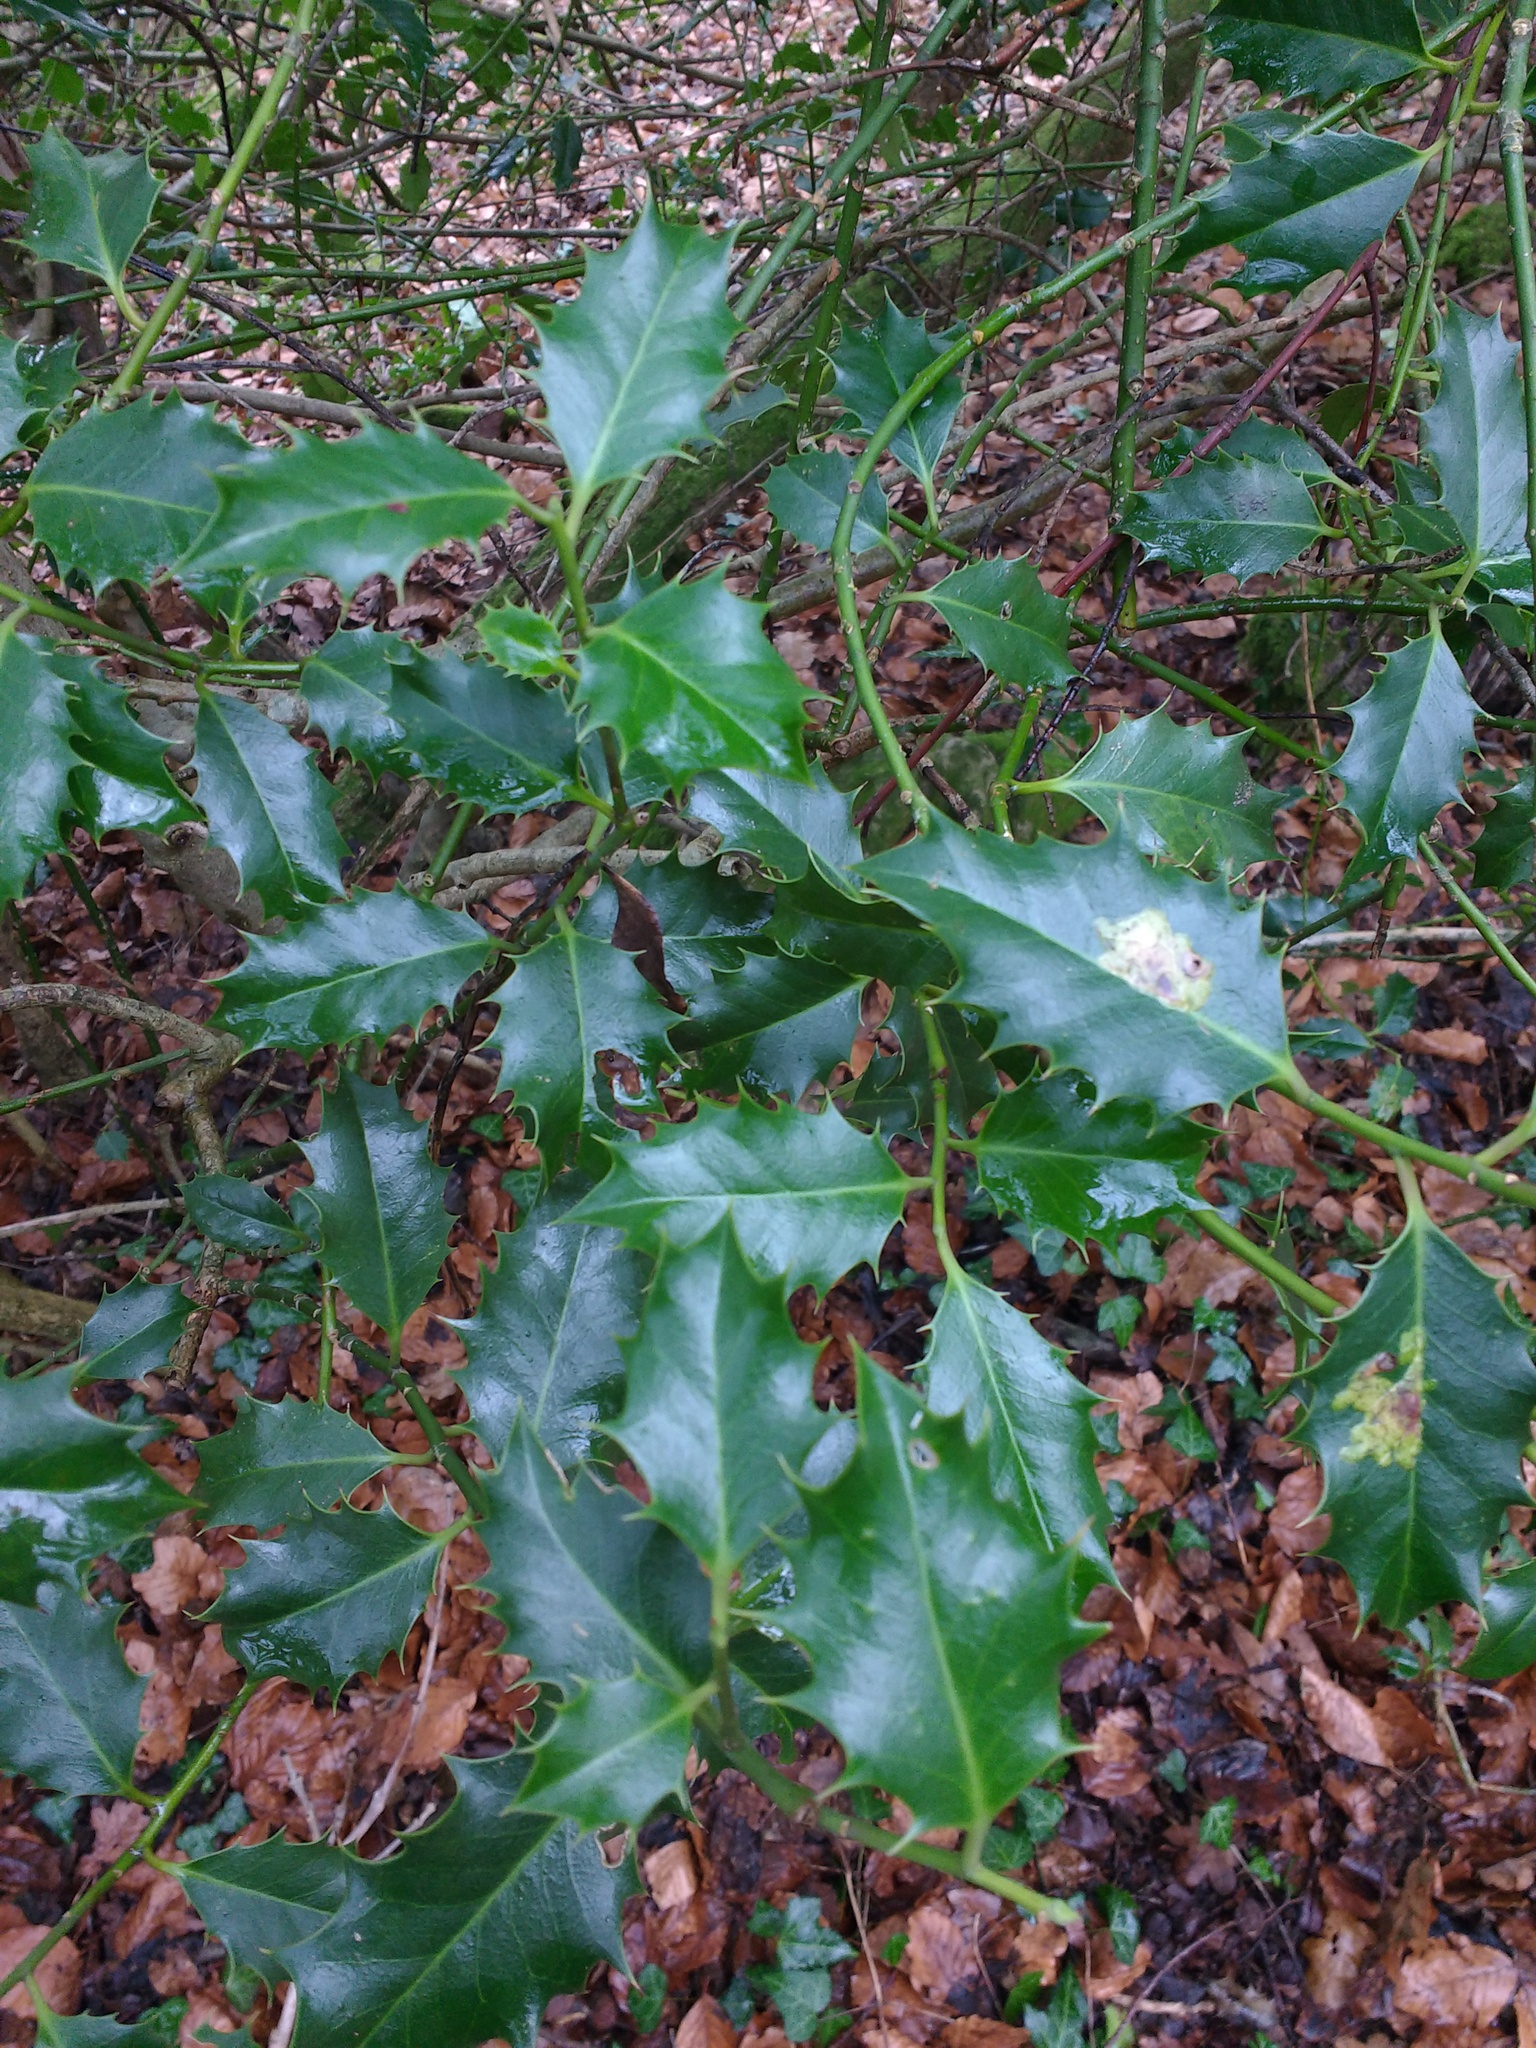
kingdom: Plantae
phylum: Tracheophyta
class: Magnoliopsida
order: Aquifoliales
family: Aquifoliaceae
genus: Ilex
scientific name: Ilex aquifolium
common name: English holly
